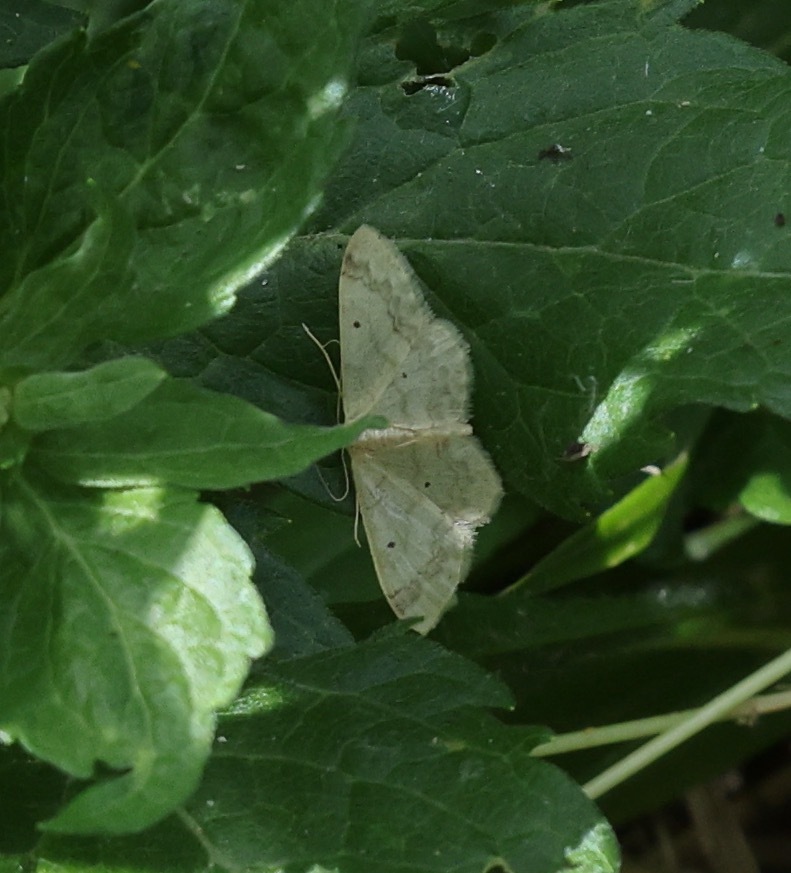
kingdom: Animalia
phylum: Arthropoda
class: Insecta
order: Lepidoptera
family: Geometridae
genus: Idaea
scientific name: Idaea biselata
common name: Small fan-footed wave
